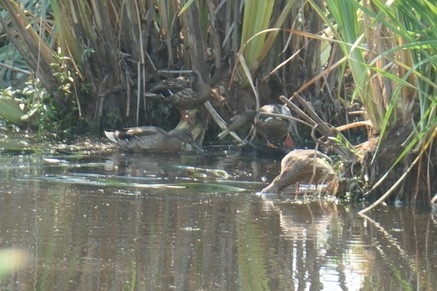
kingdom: Animalia
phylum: Chordata
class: Aves
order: Anseriformes
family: Anatidae
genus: Anas
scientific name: Anas platyrhynchos
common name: Mallard
